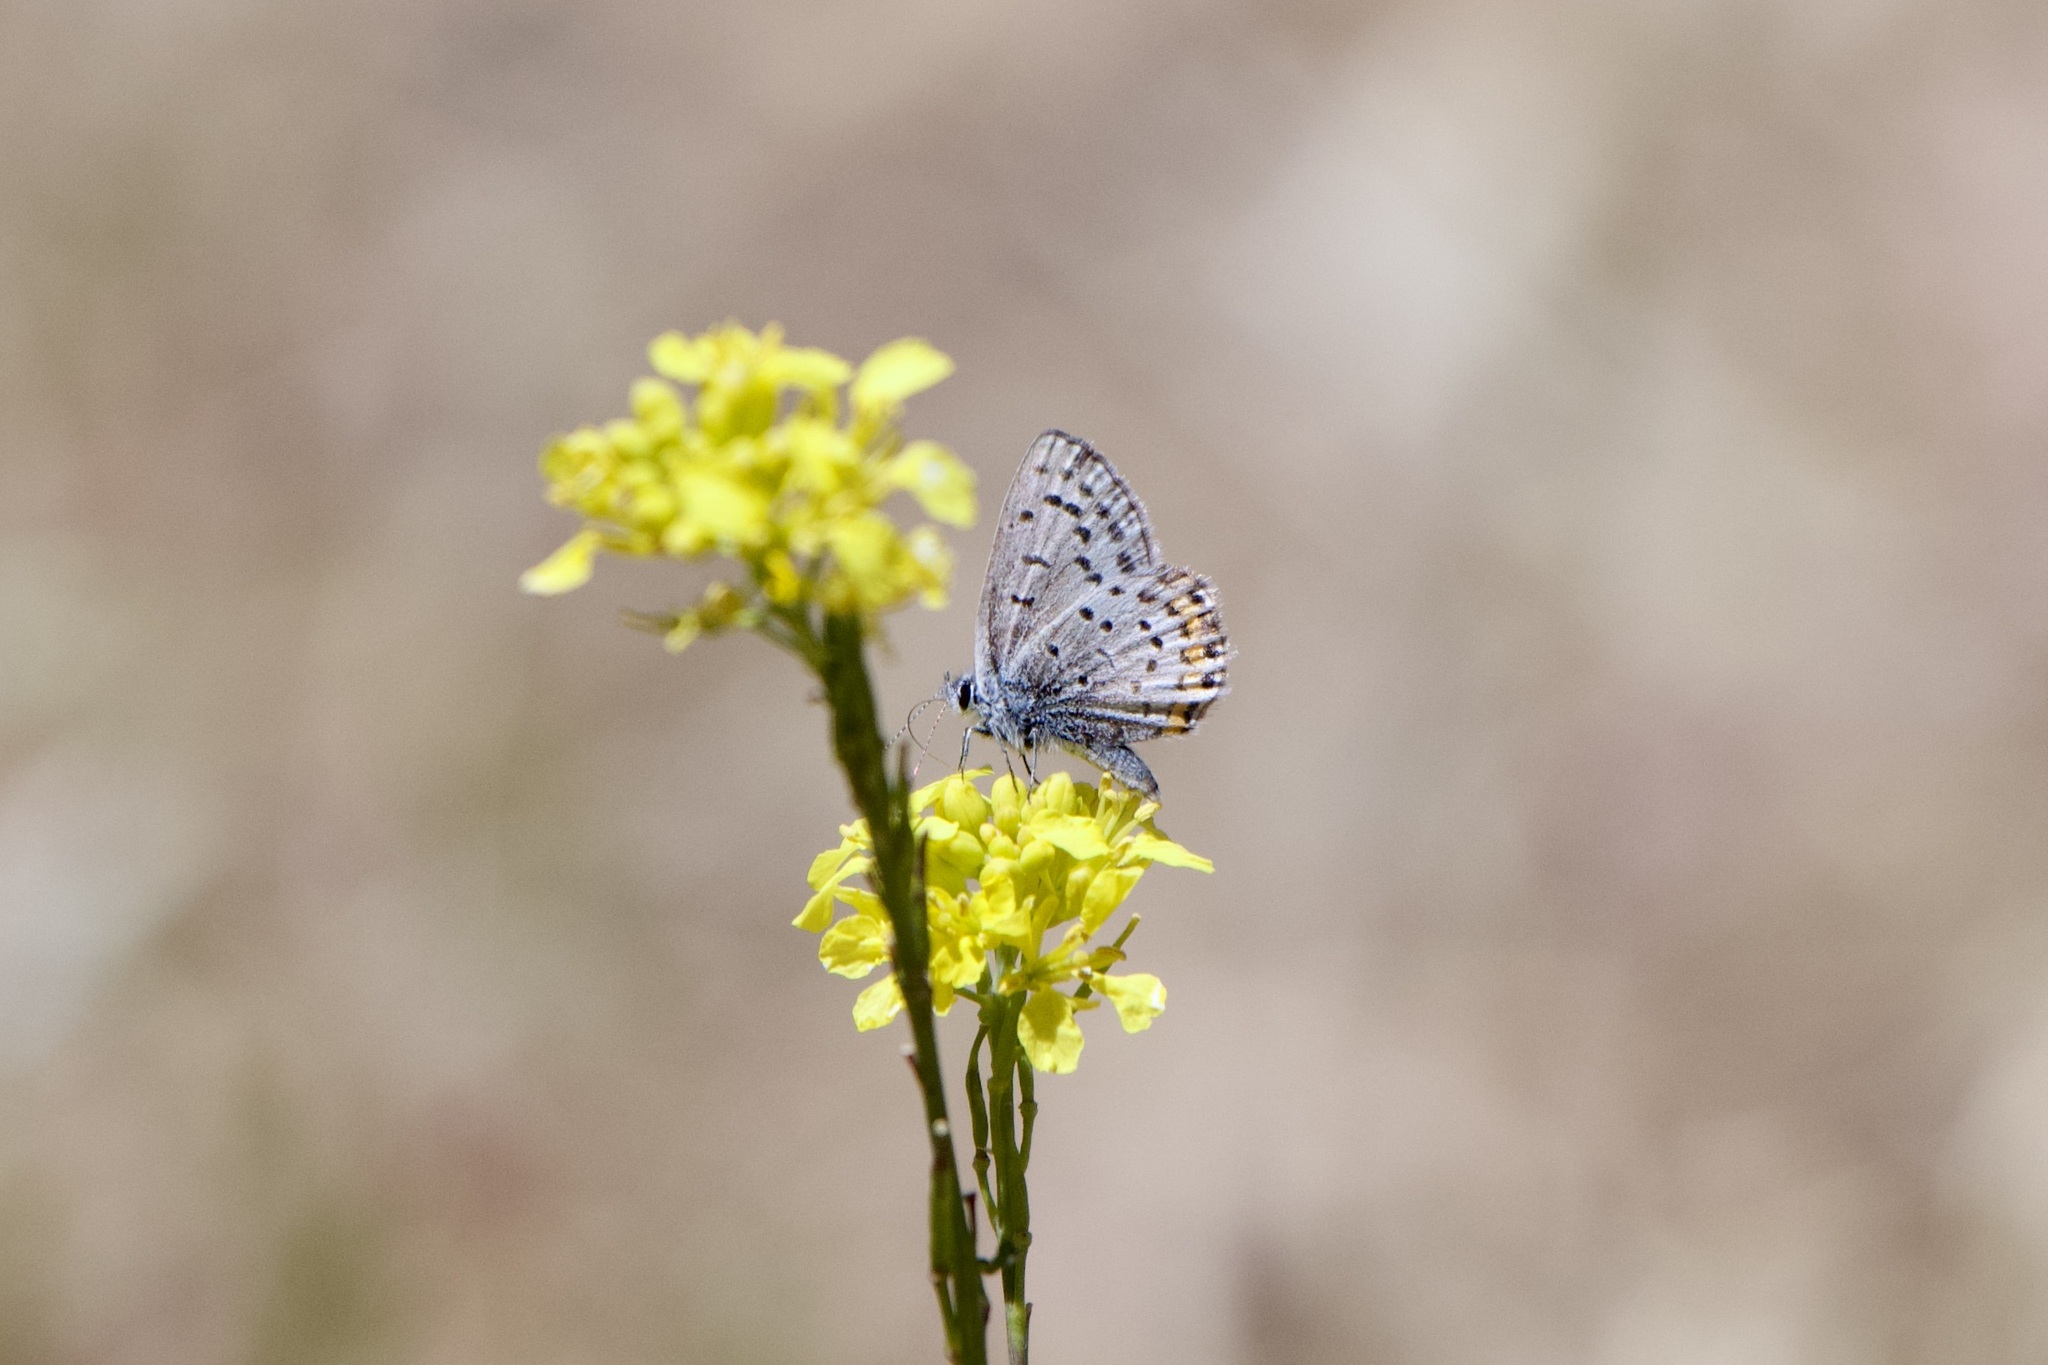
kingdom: Animalia
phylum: Arthropoda
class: Insecta
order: Lepidoptera
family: Lycaenidae
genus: Icaricia
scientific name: Icaricia acmon
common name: Acmon blue
